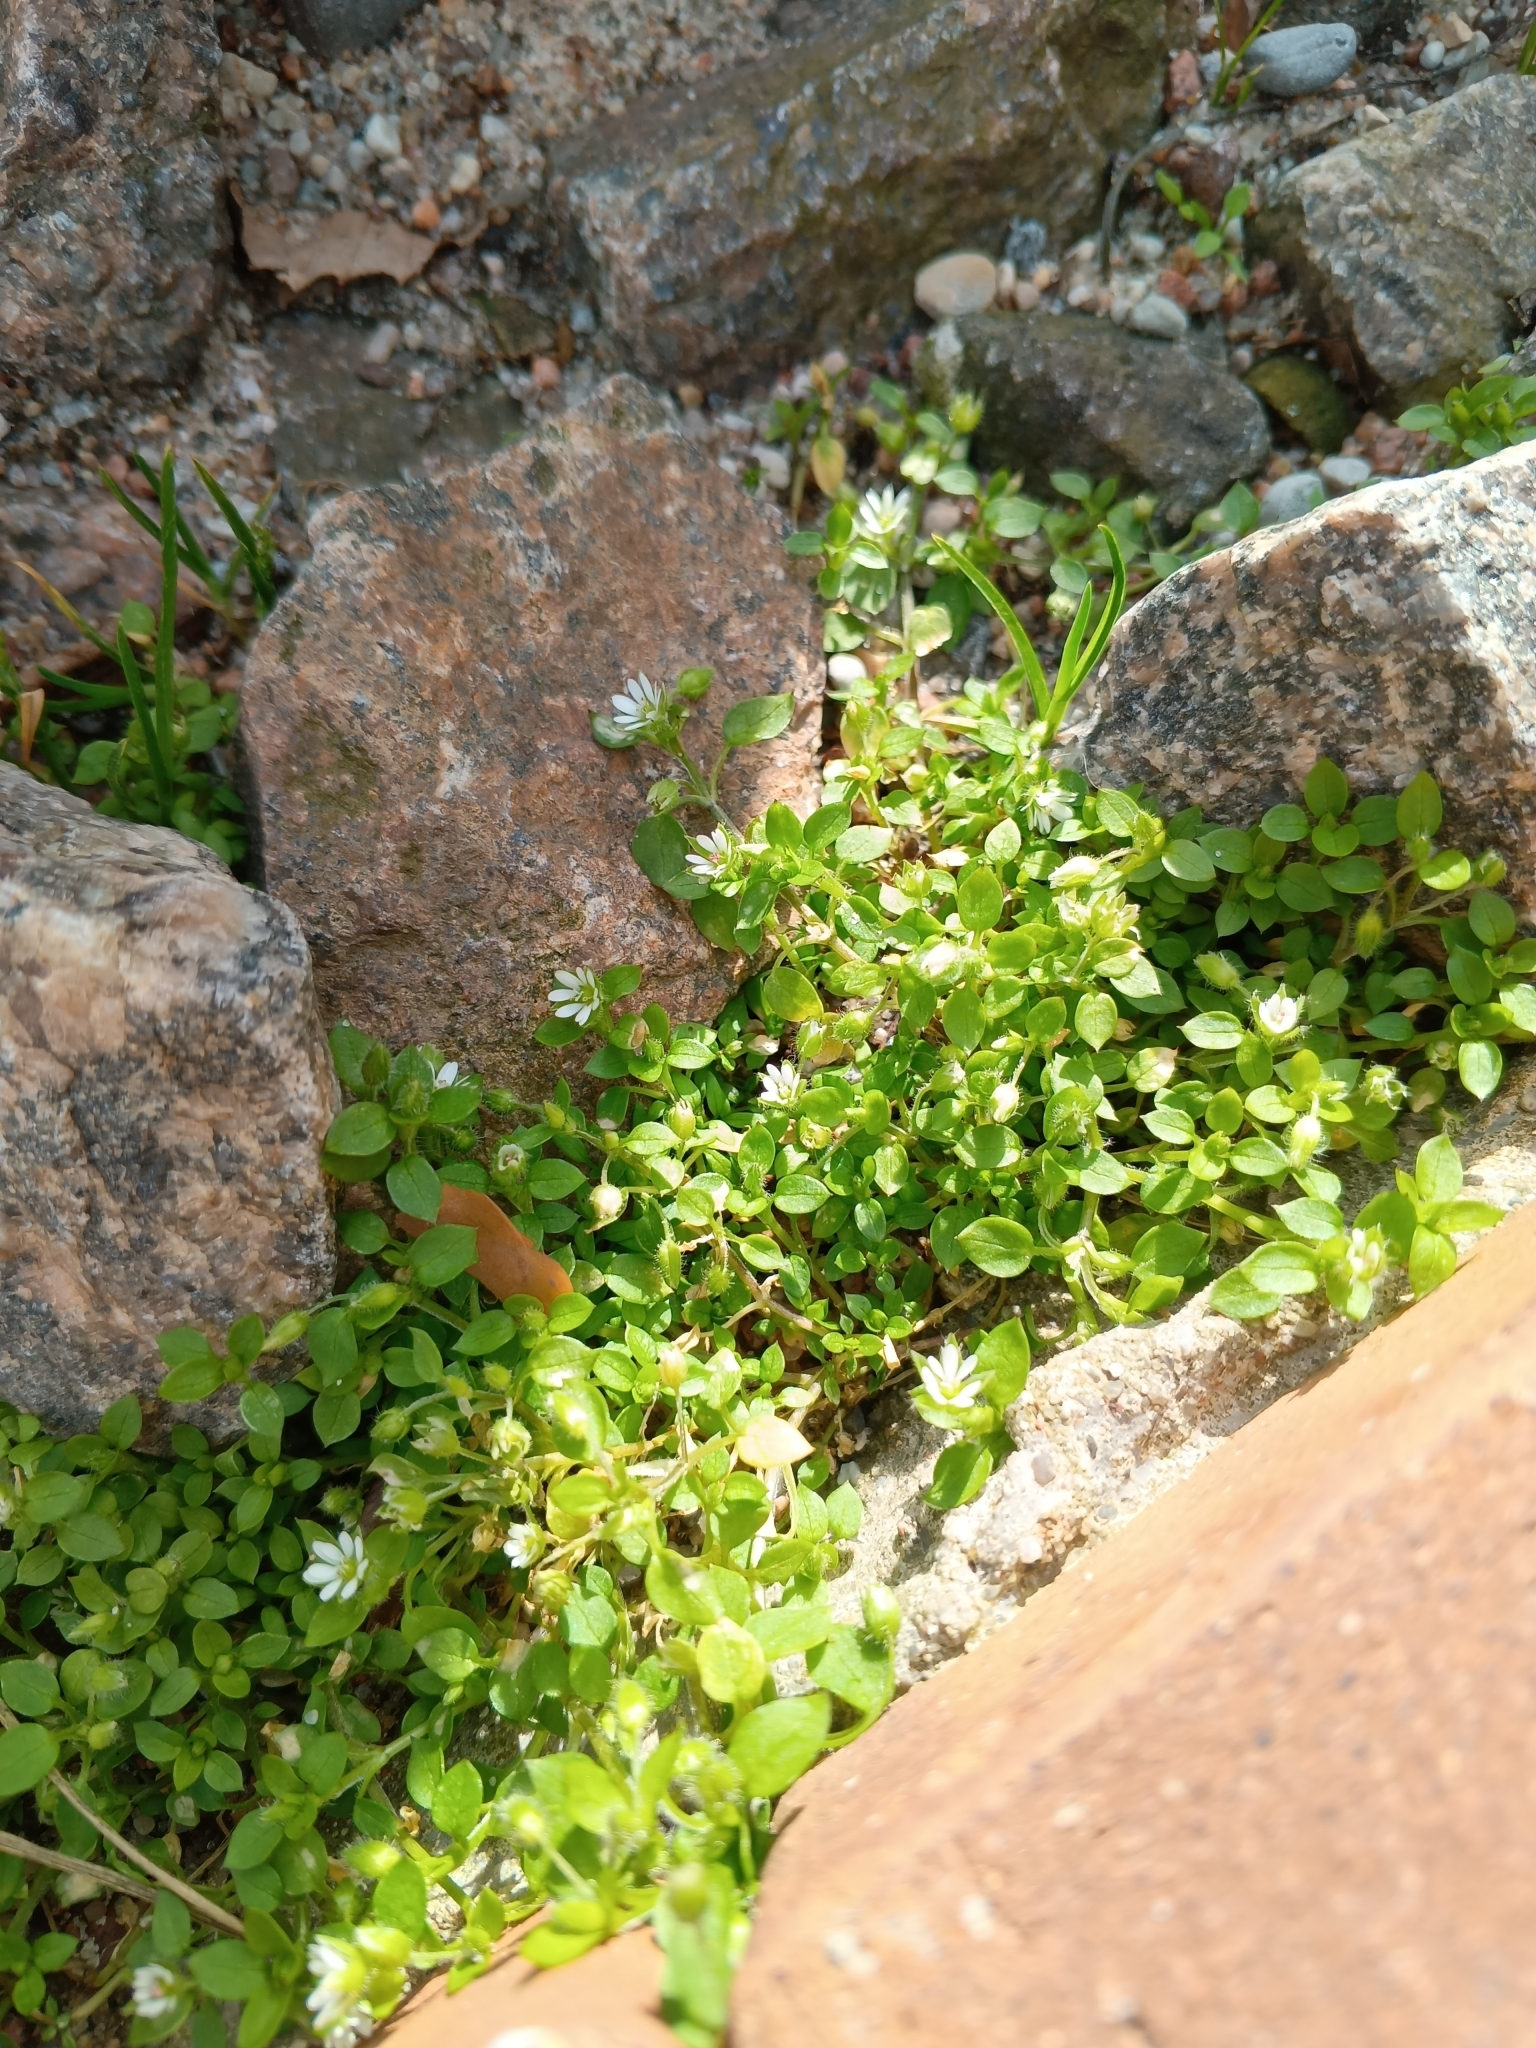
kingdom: Plantae
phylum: Tracheophyta
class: Magnoliopsida
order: Caryophyllales
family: Caryophyllaceae
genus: Stellaria
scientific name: Stellaria media
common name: Common chickweed
